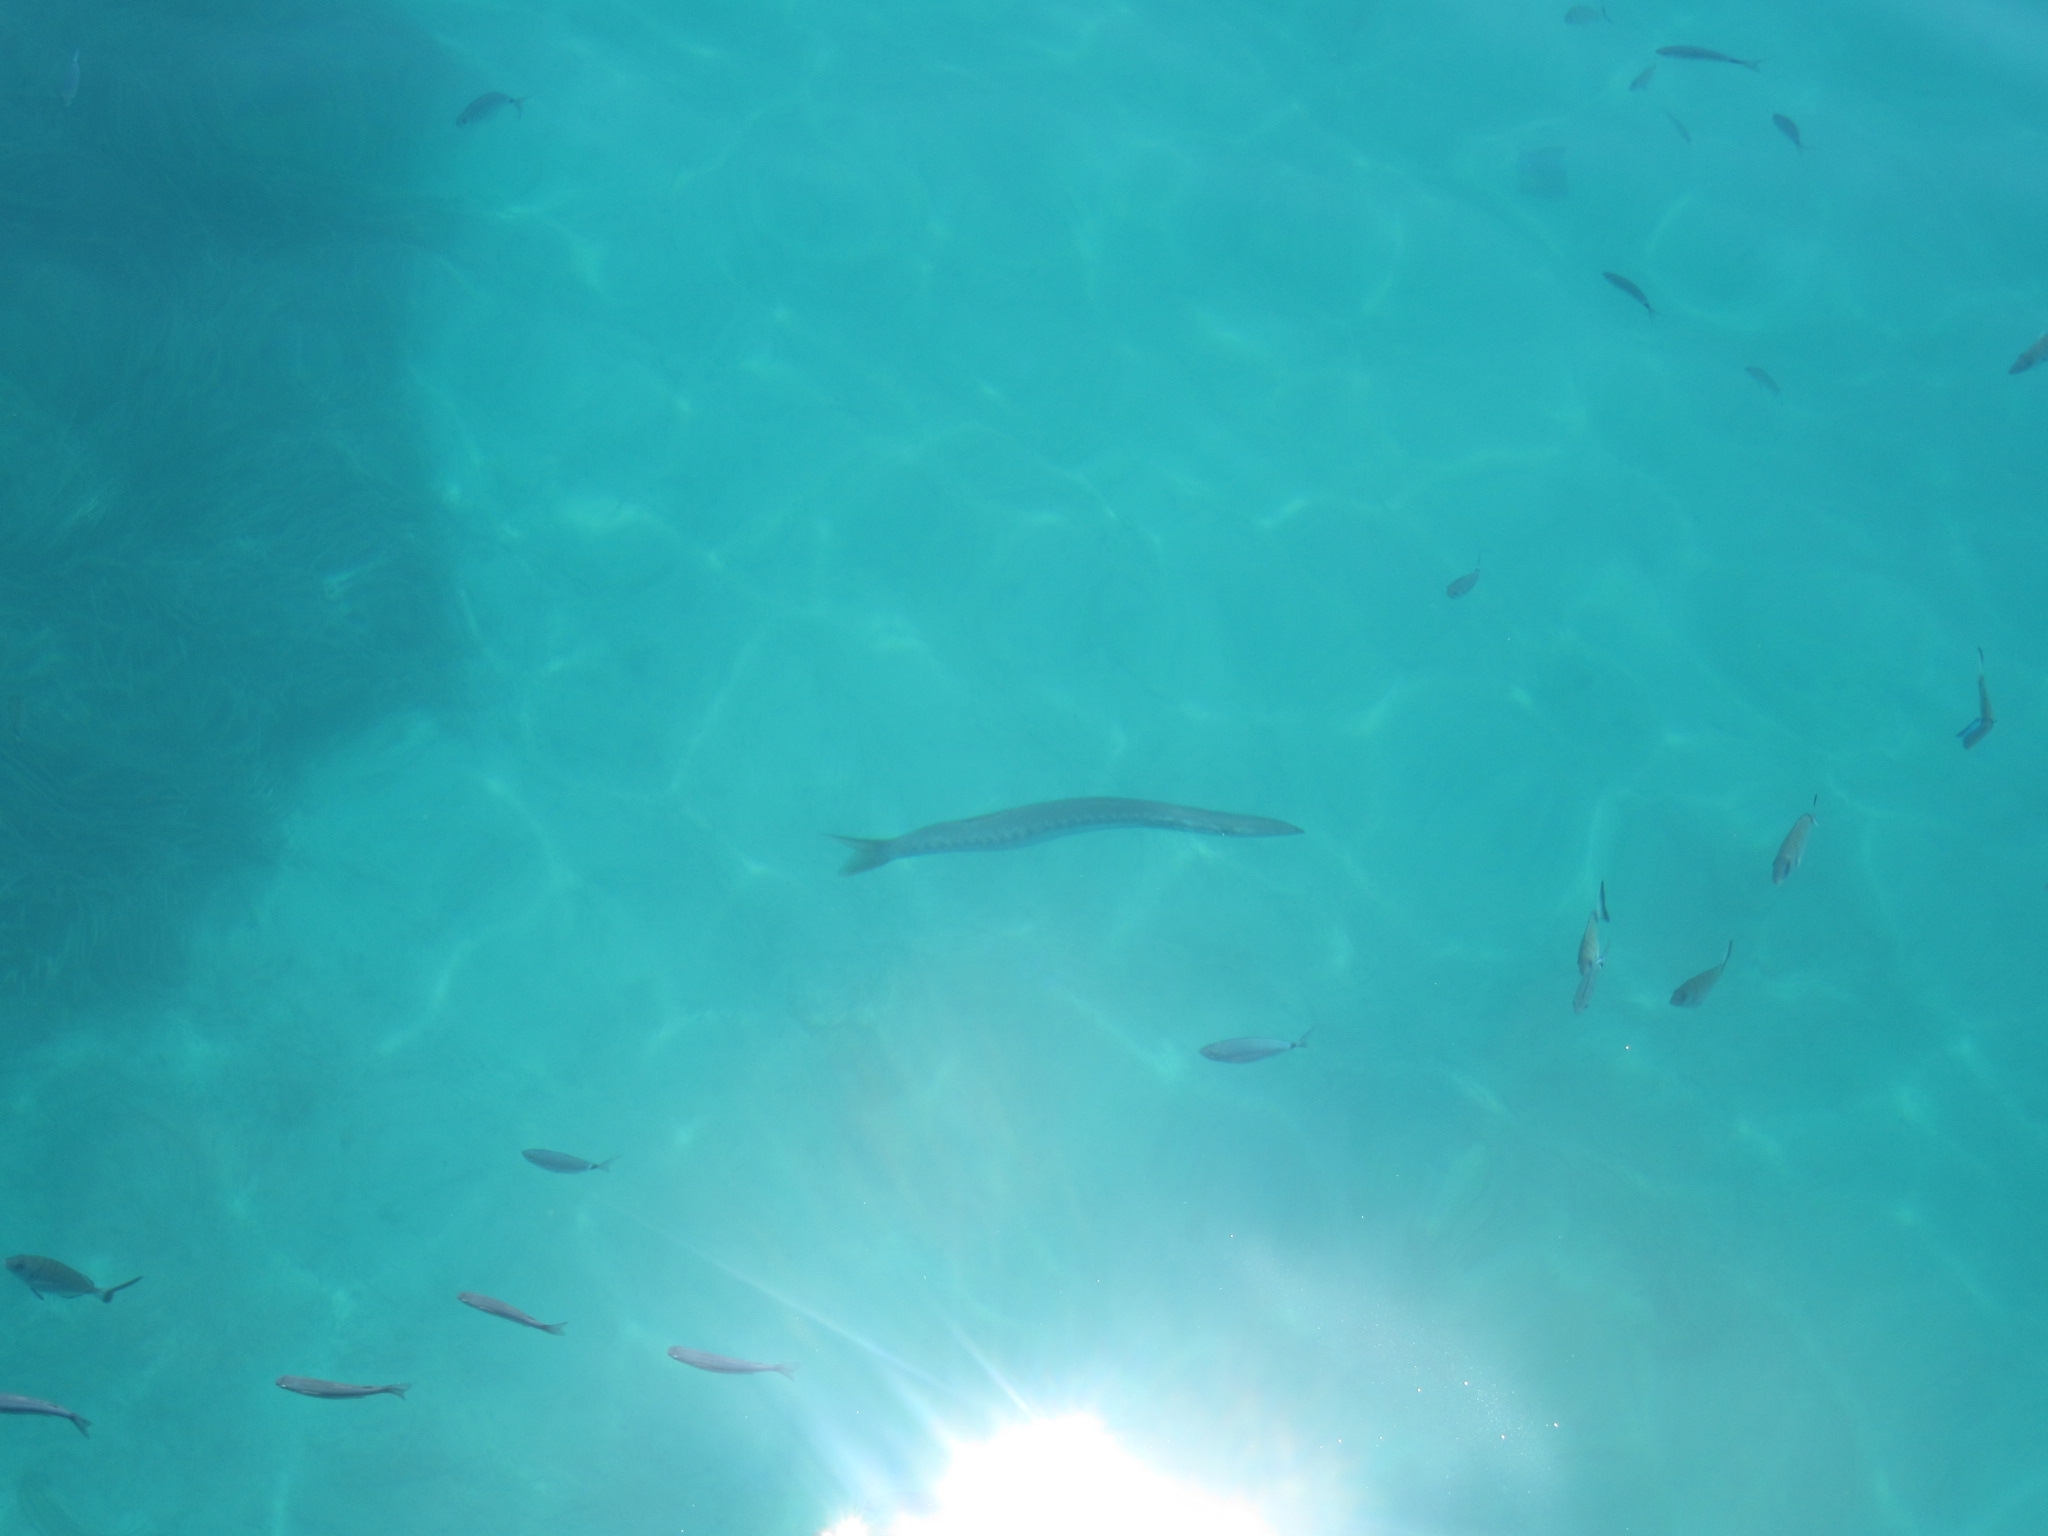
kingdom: Animalia
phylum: Chordata
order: Perciformes
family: Sphyraenidae
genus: Sphyraena
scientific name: Sphyraena viridensis
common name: Yellowmouth barracuda
